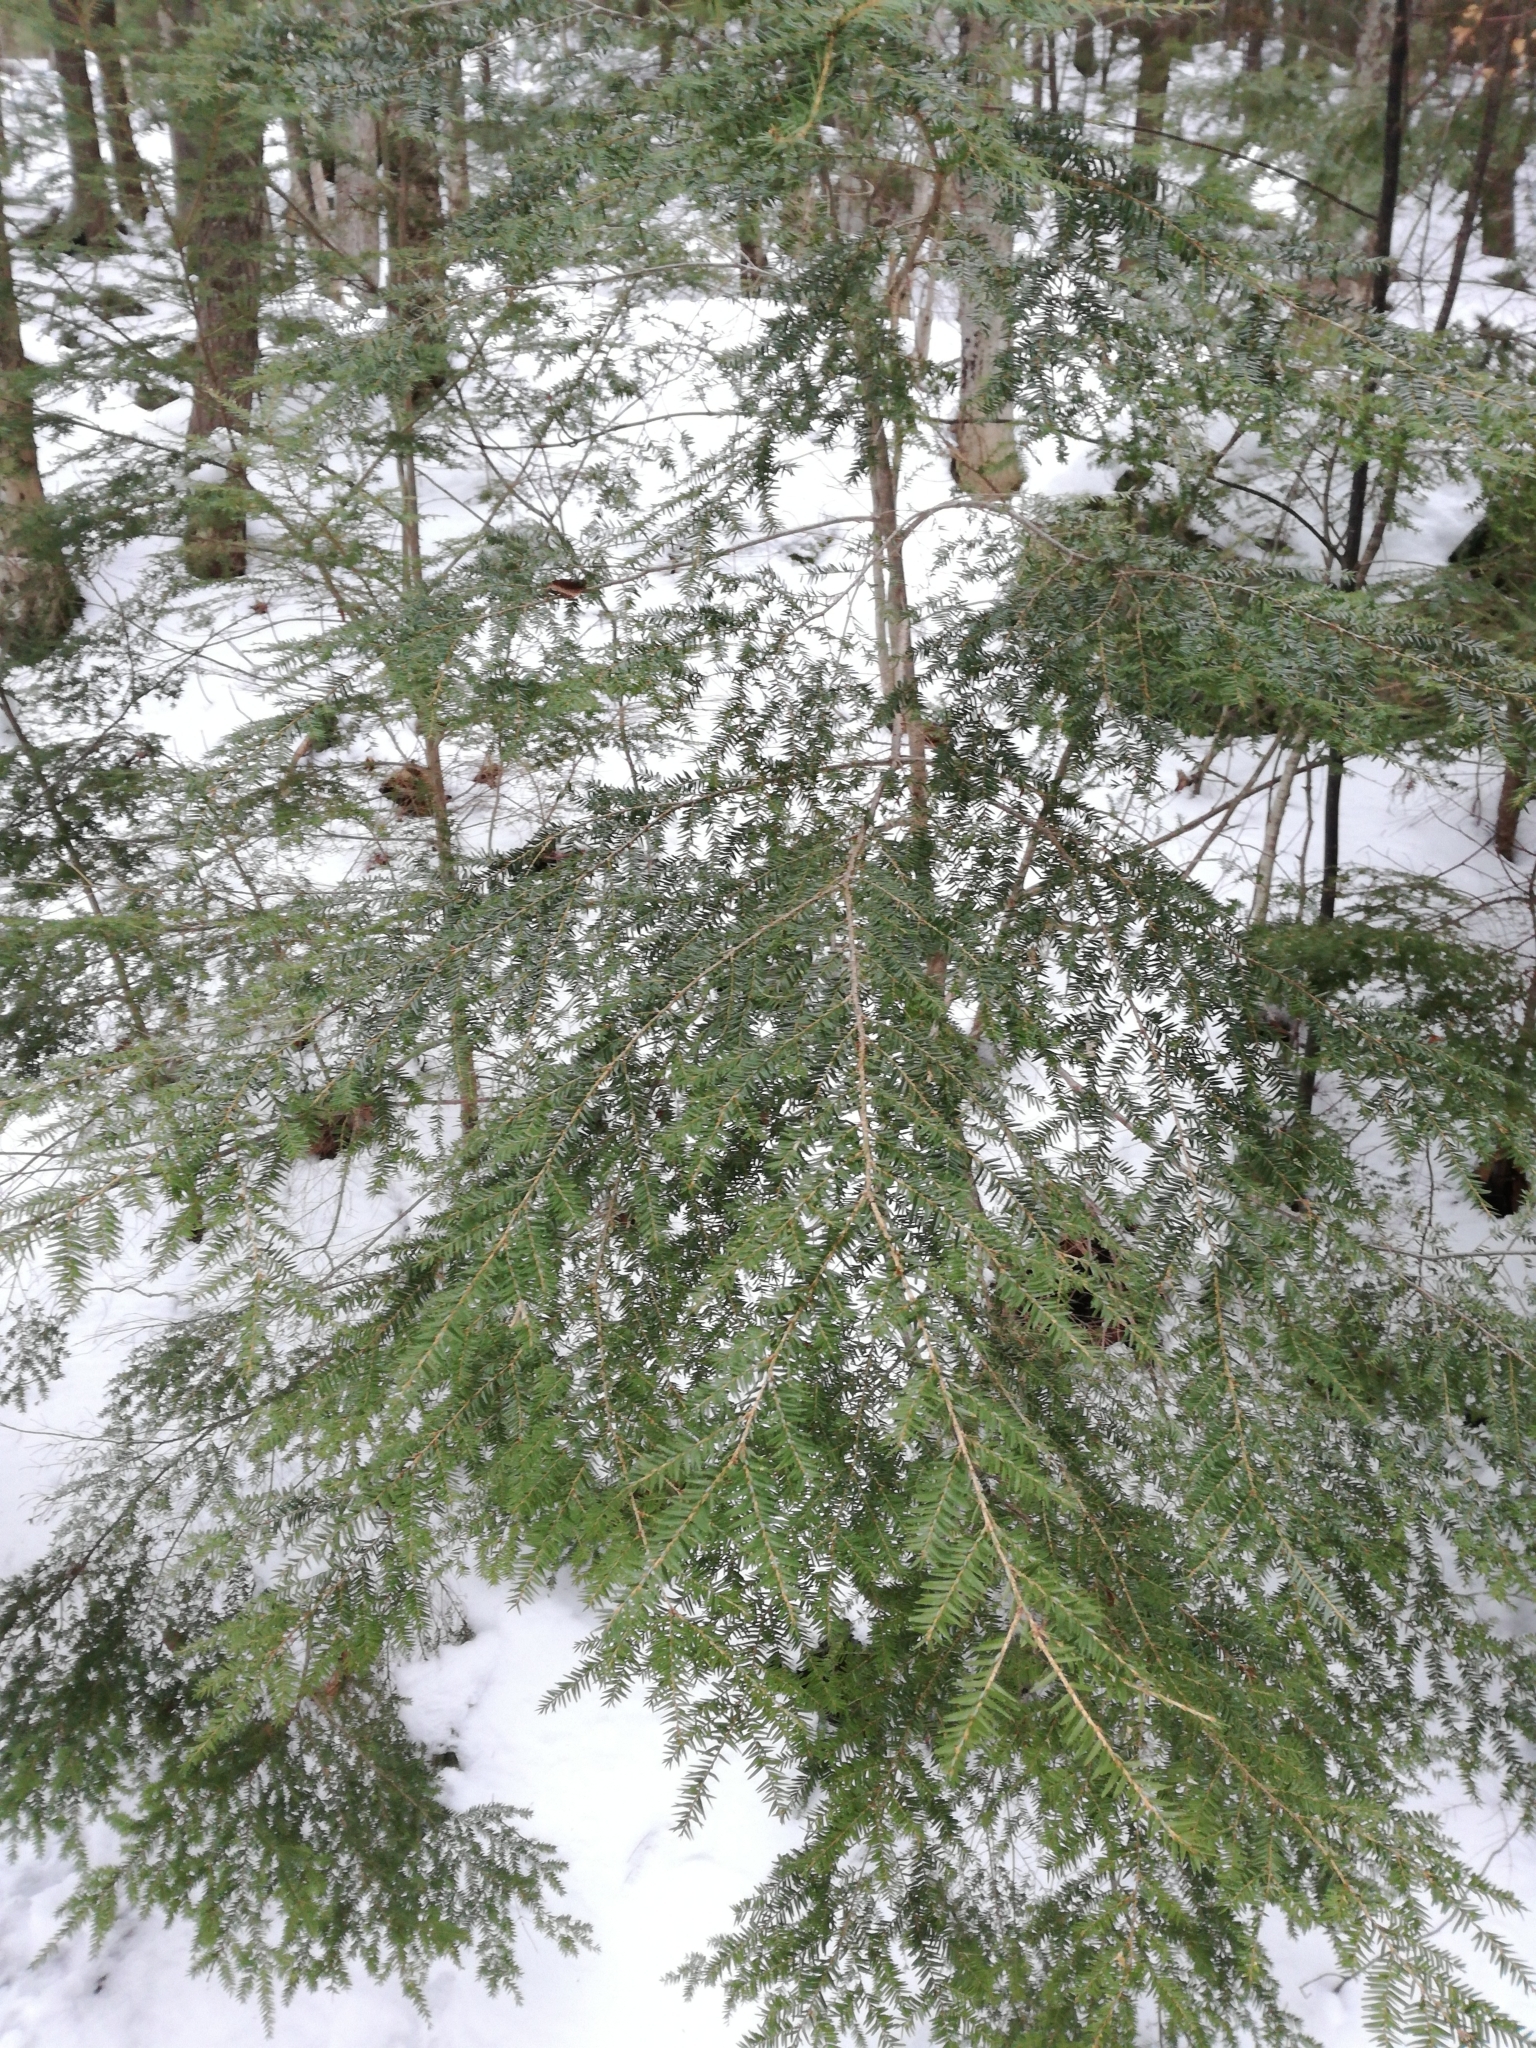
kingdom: Plantae
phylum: Tracheophyta
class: Pinopsida
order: Pinales
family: Pinaceae
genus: Tsuga
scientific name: Tsuga canadensis
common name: Eastern hemlock
